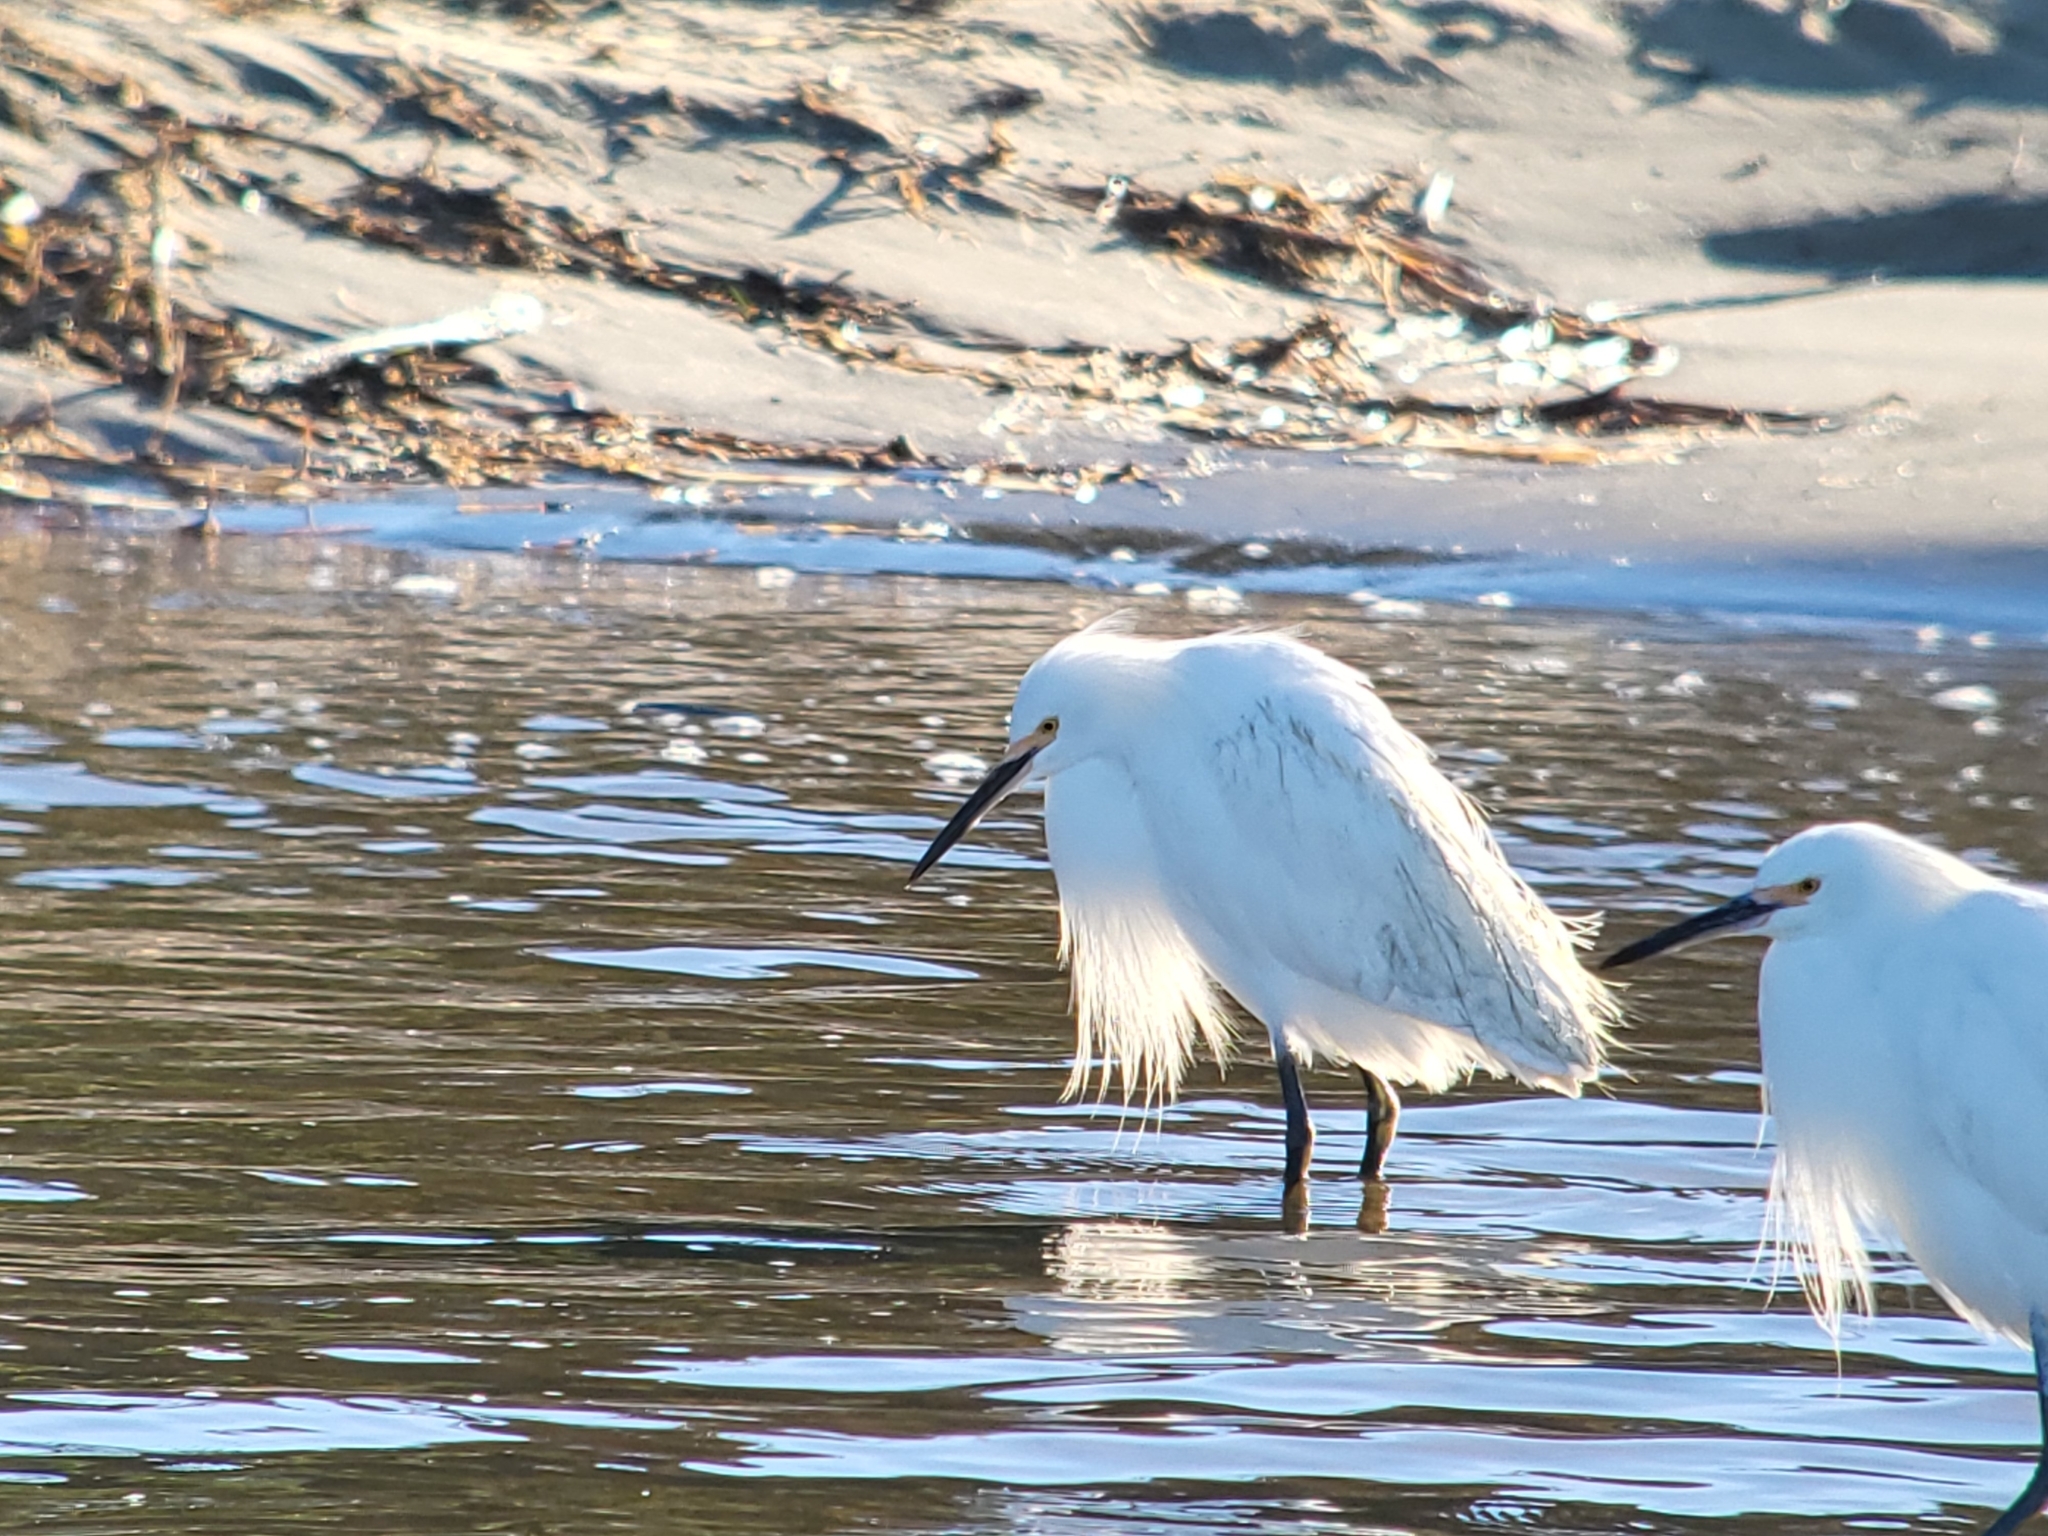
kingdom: Animalia
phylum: Chordata
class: Aves
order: Pelecaniformes
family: Ardeidae
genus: Egretta
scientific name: Egretta thula
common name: Snowy egret
